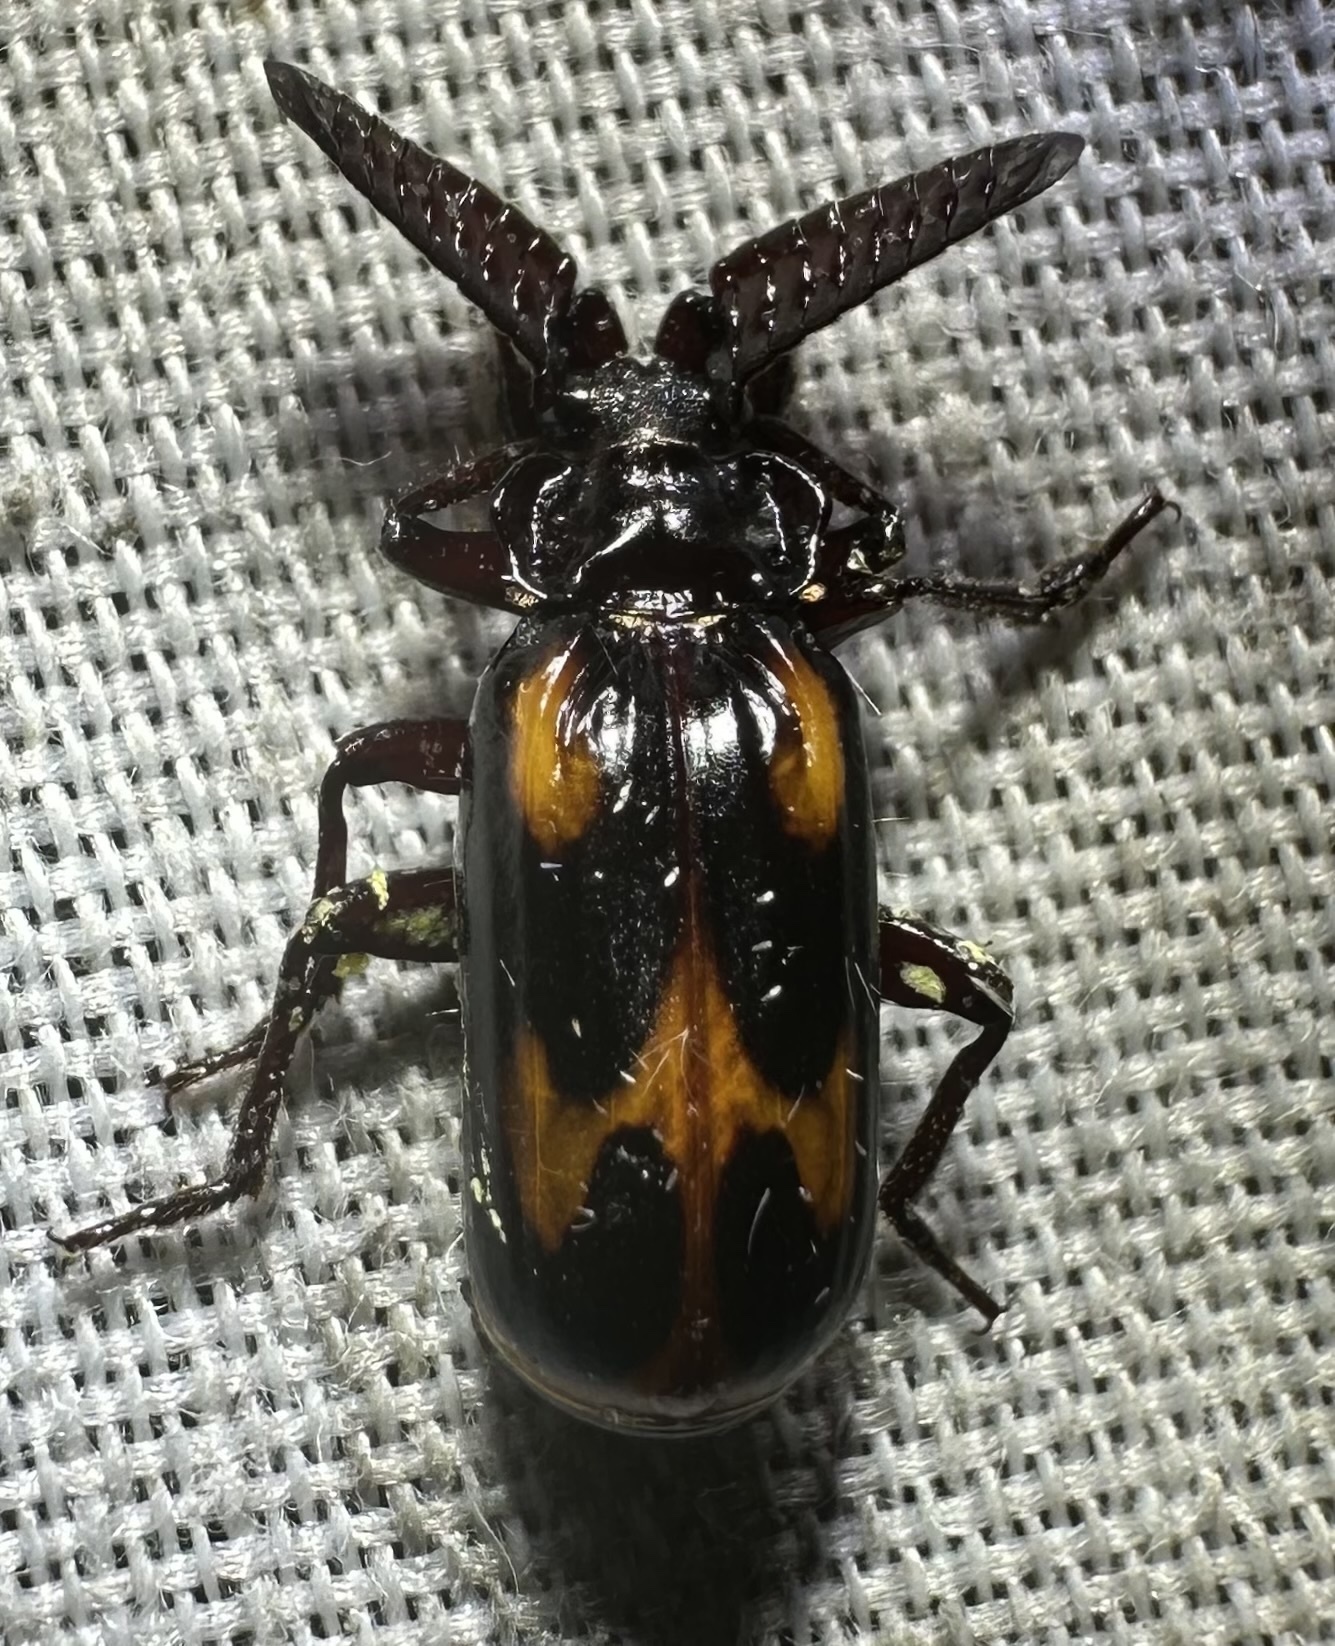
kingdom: Animalia
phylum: Arthropoda
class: Insecta
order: Coleoptera
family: Carabidae
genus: Heteropaussus
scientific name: Heteropaussus hastatus
